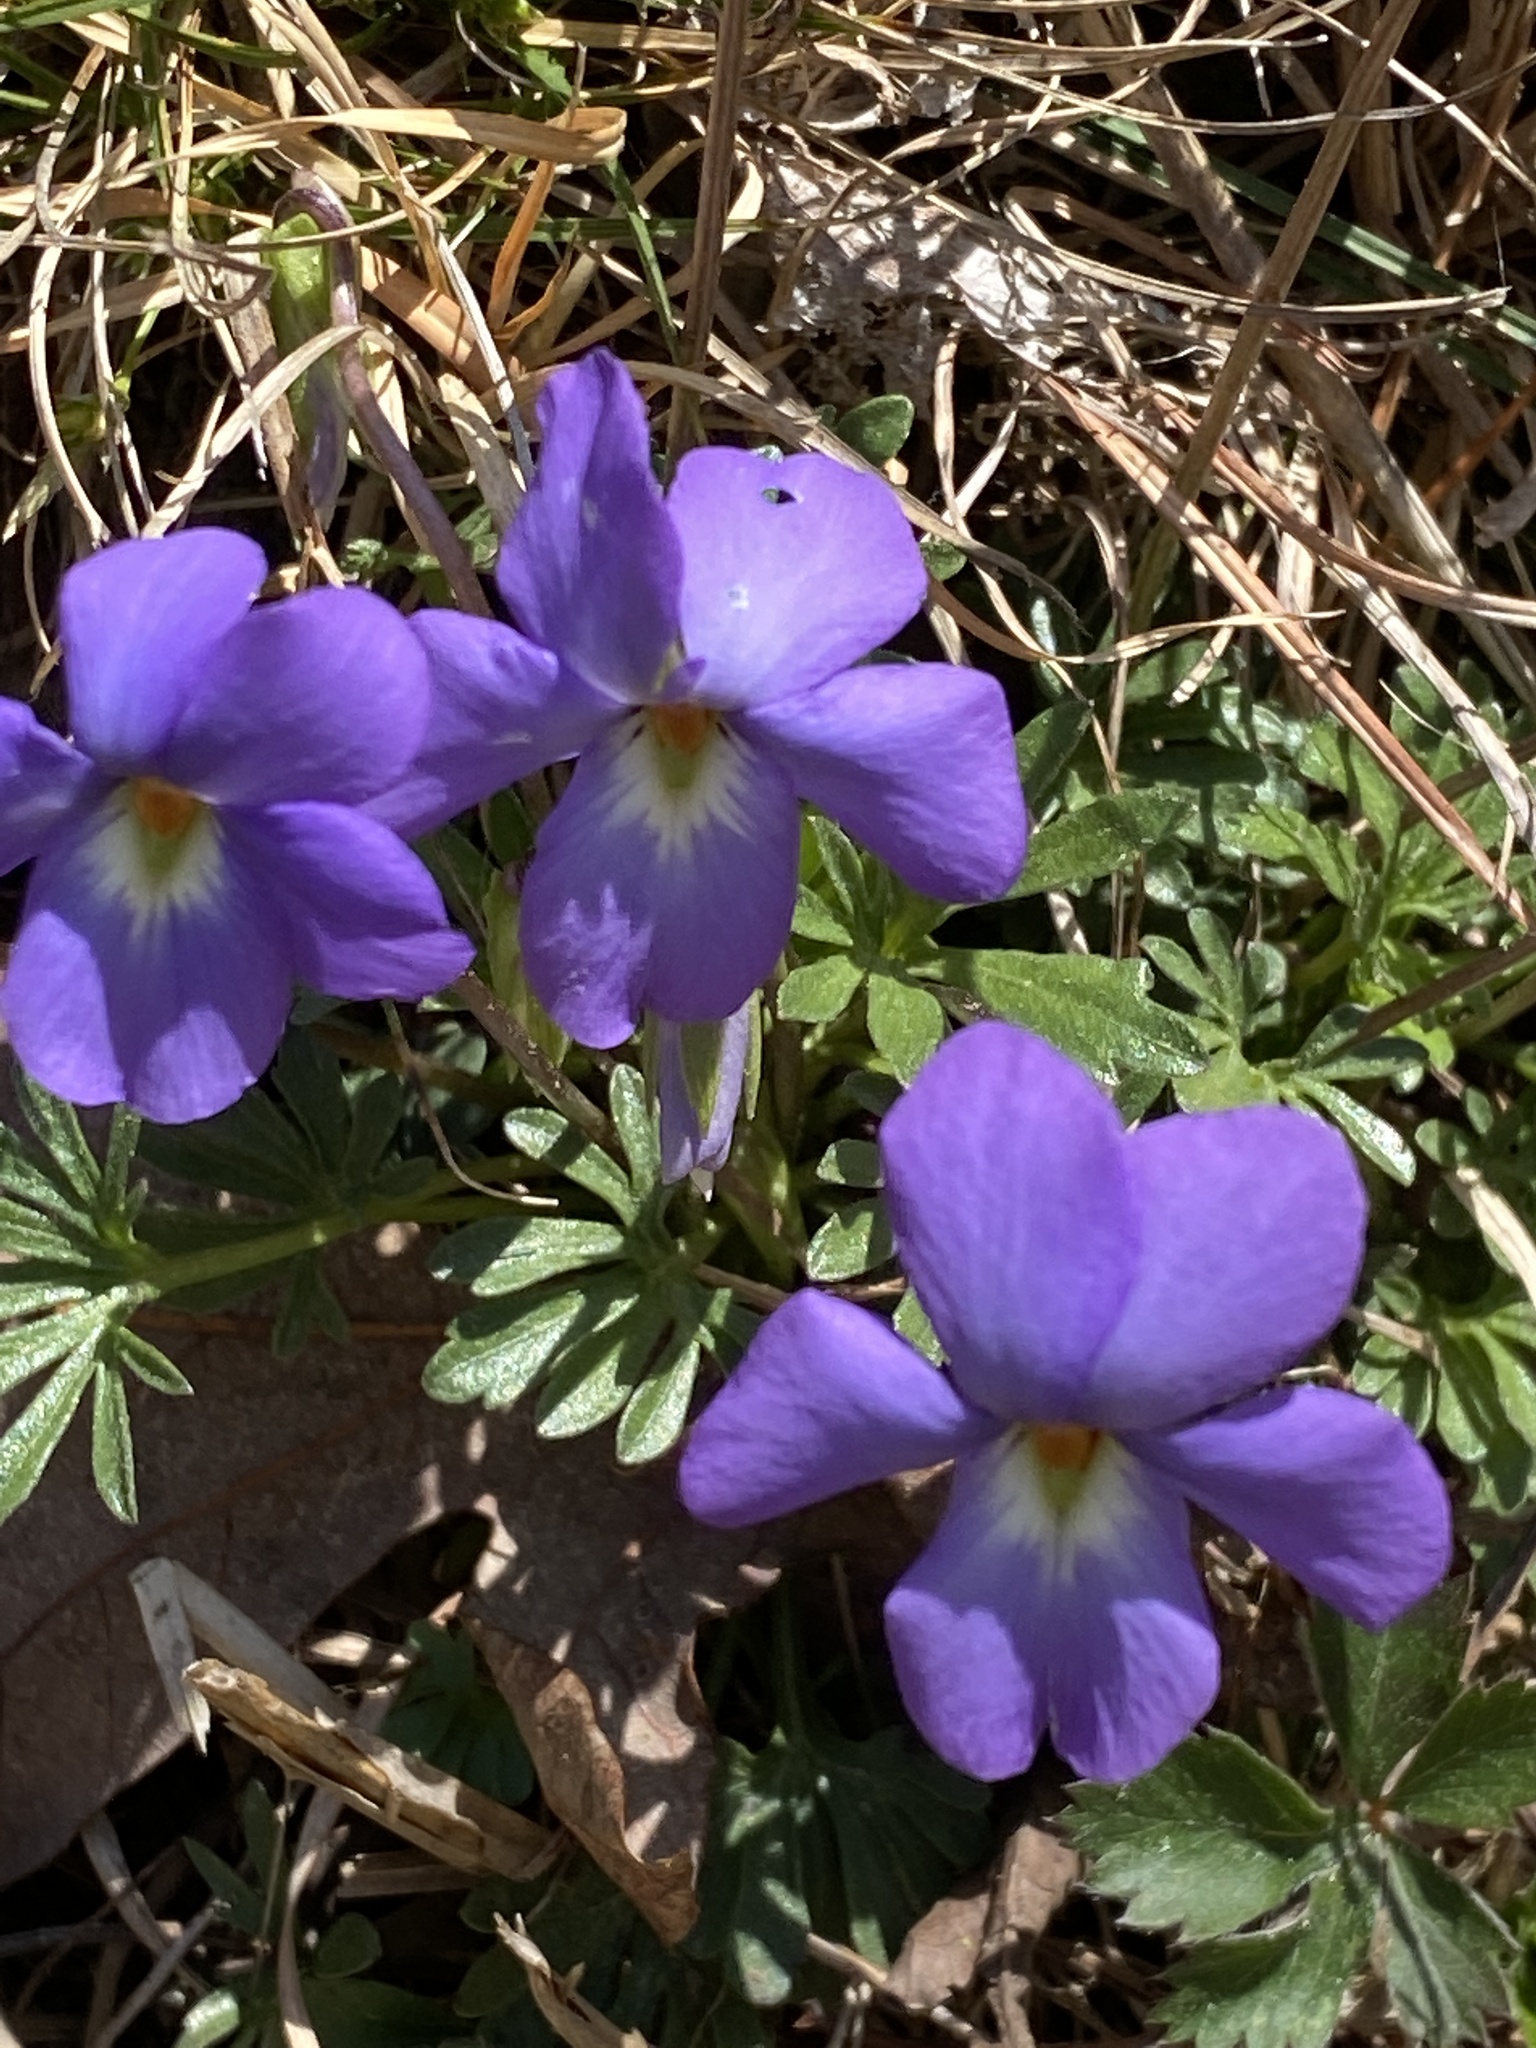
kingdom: Plantae
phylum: Tracheophyta
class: Magnoliopsida
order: Malpighiales
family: Violaceae
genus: Viola
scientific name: Viola pedata
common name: Pansy violet
